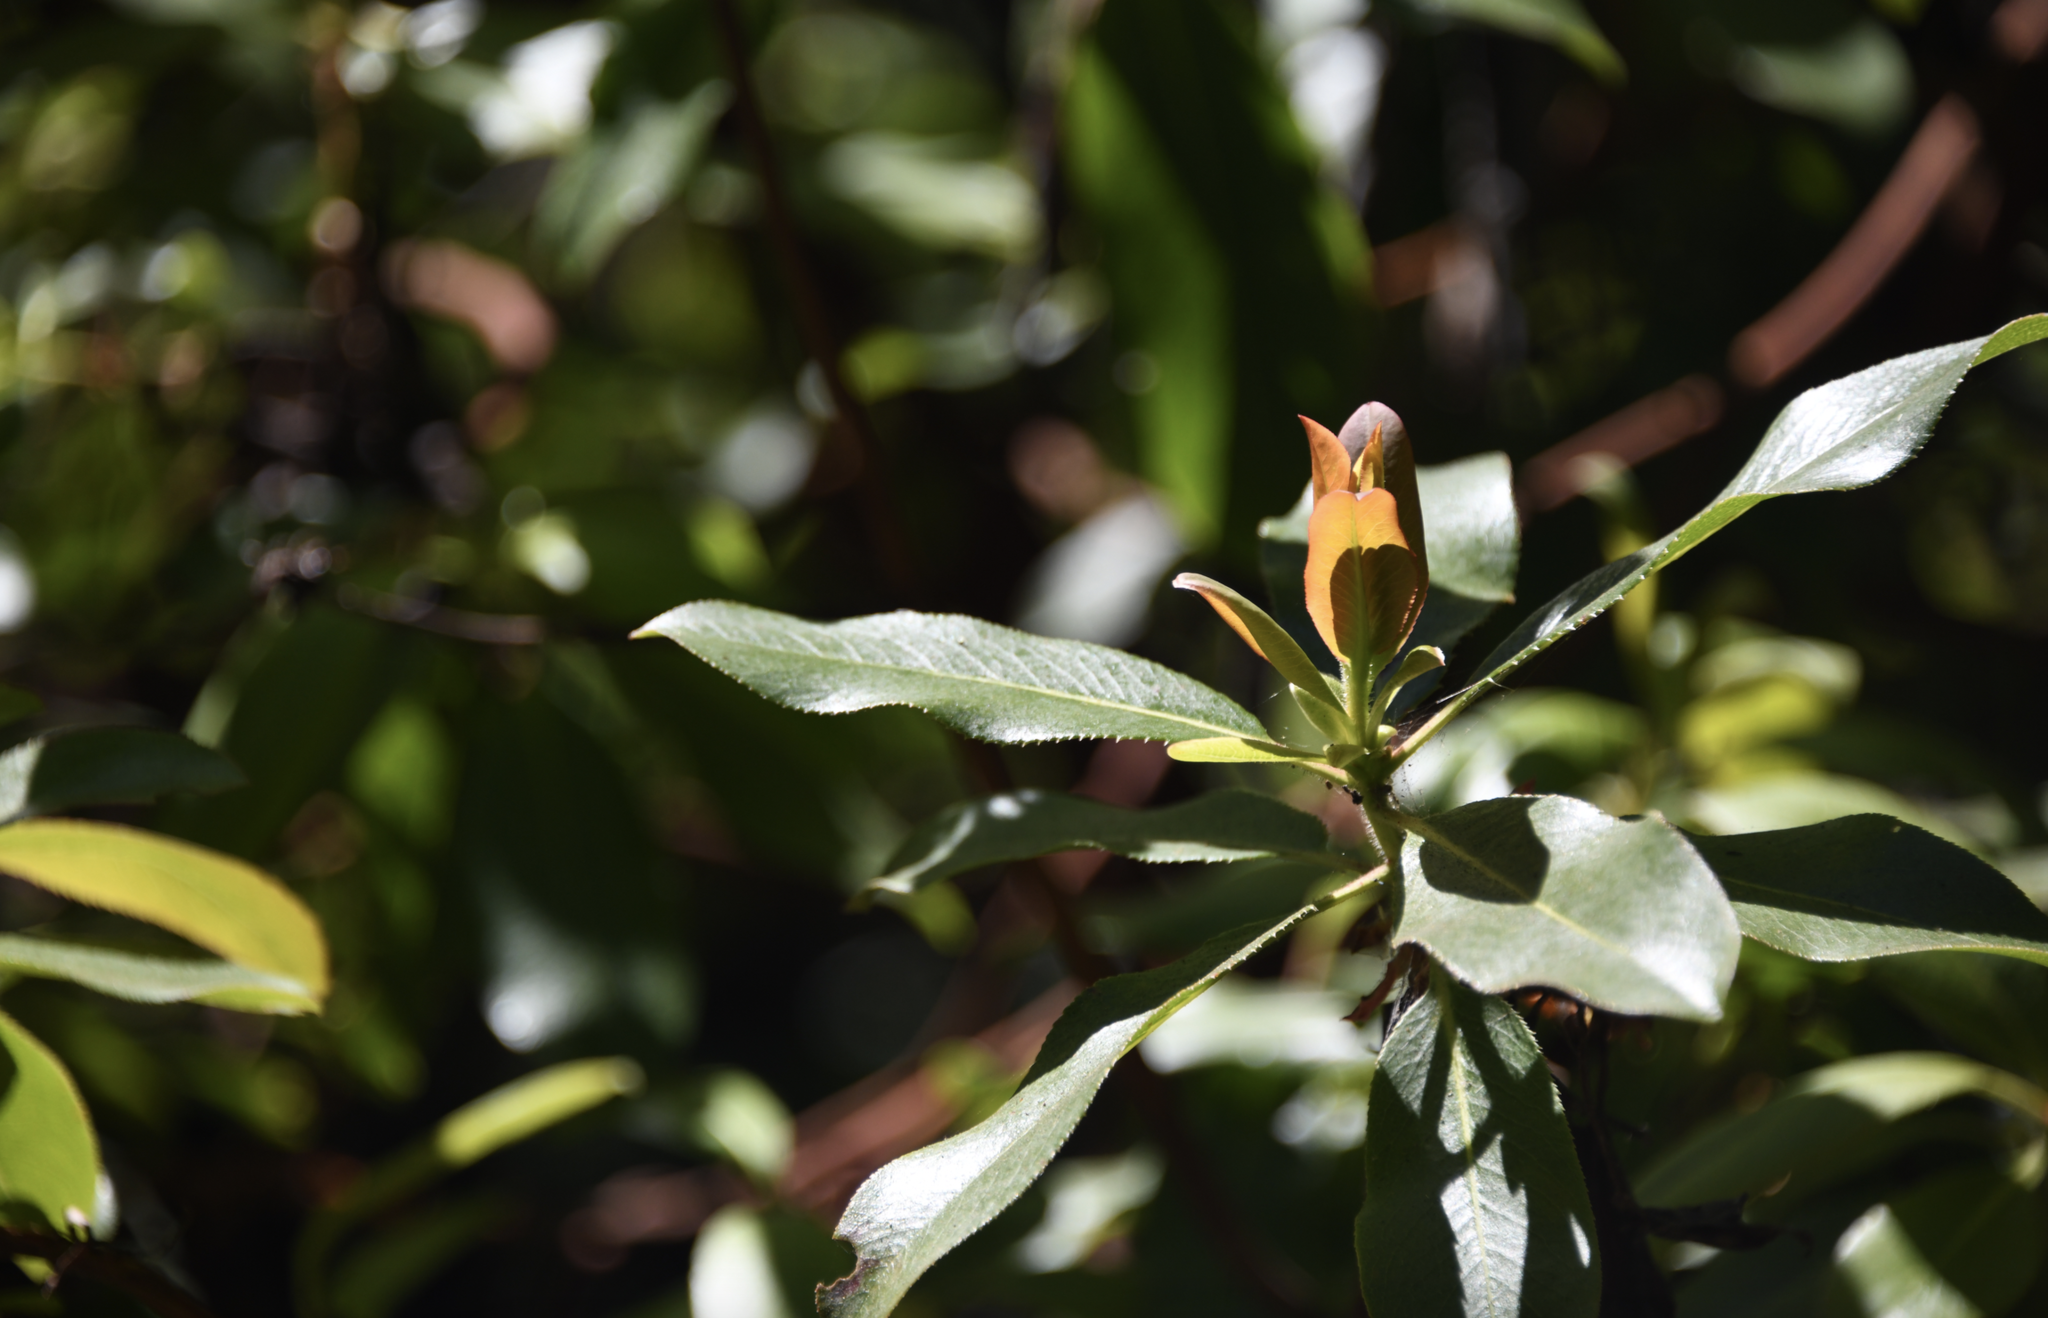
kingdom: Plantae
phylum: Tracheophyta
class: Magnoliopsida
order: Ericales
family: Ericaceae
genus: Arbutus
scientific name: Arbutus menziesii
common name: Pacific madrone
